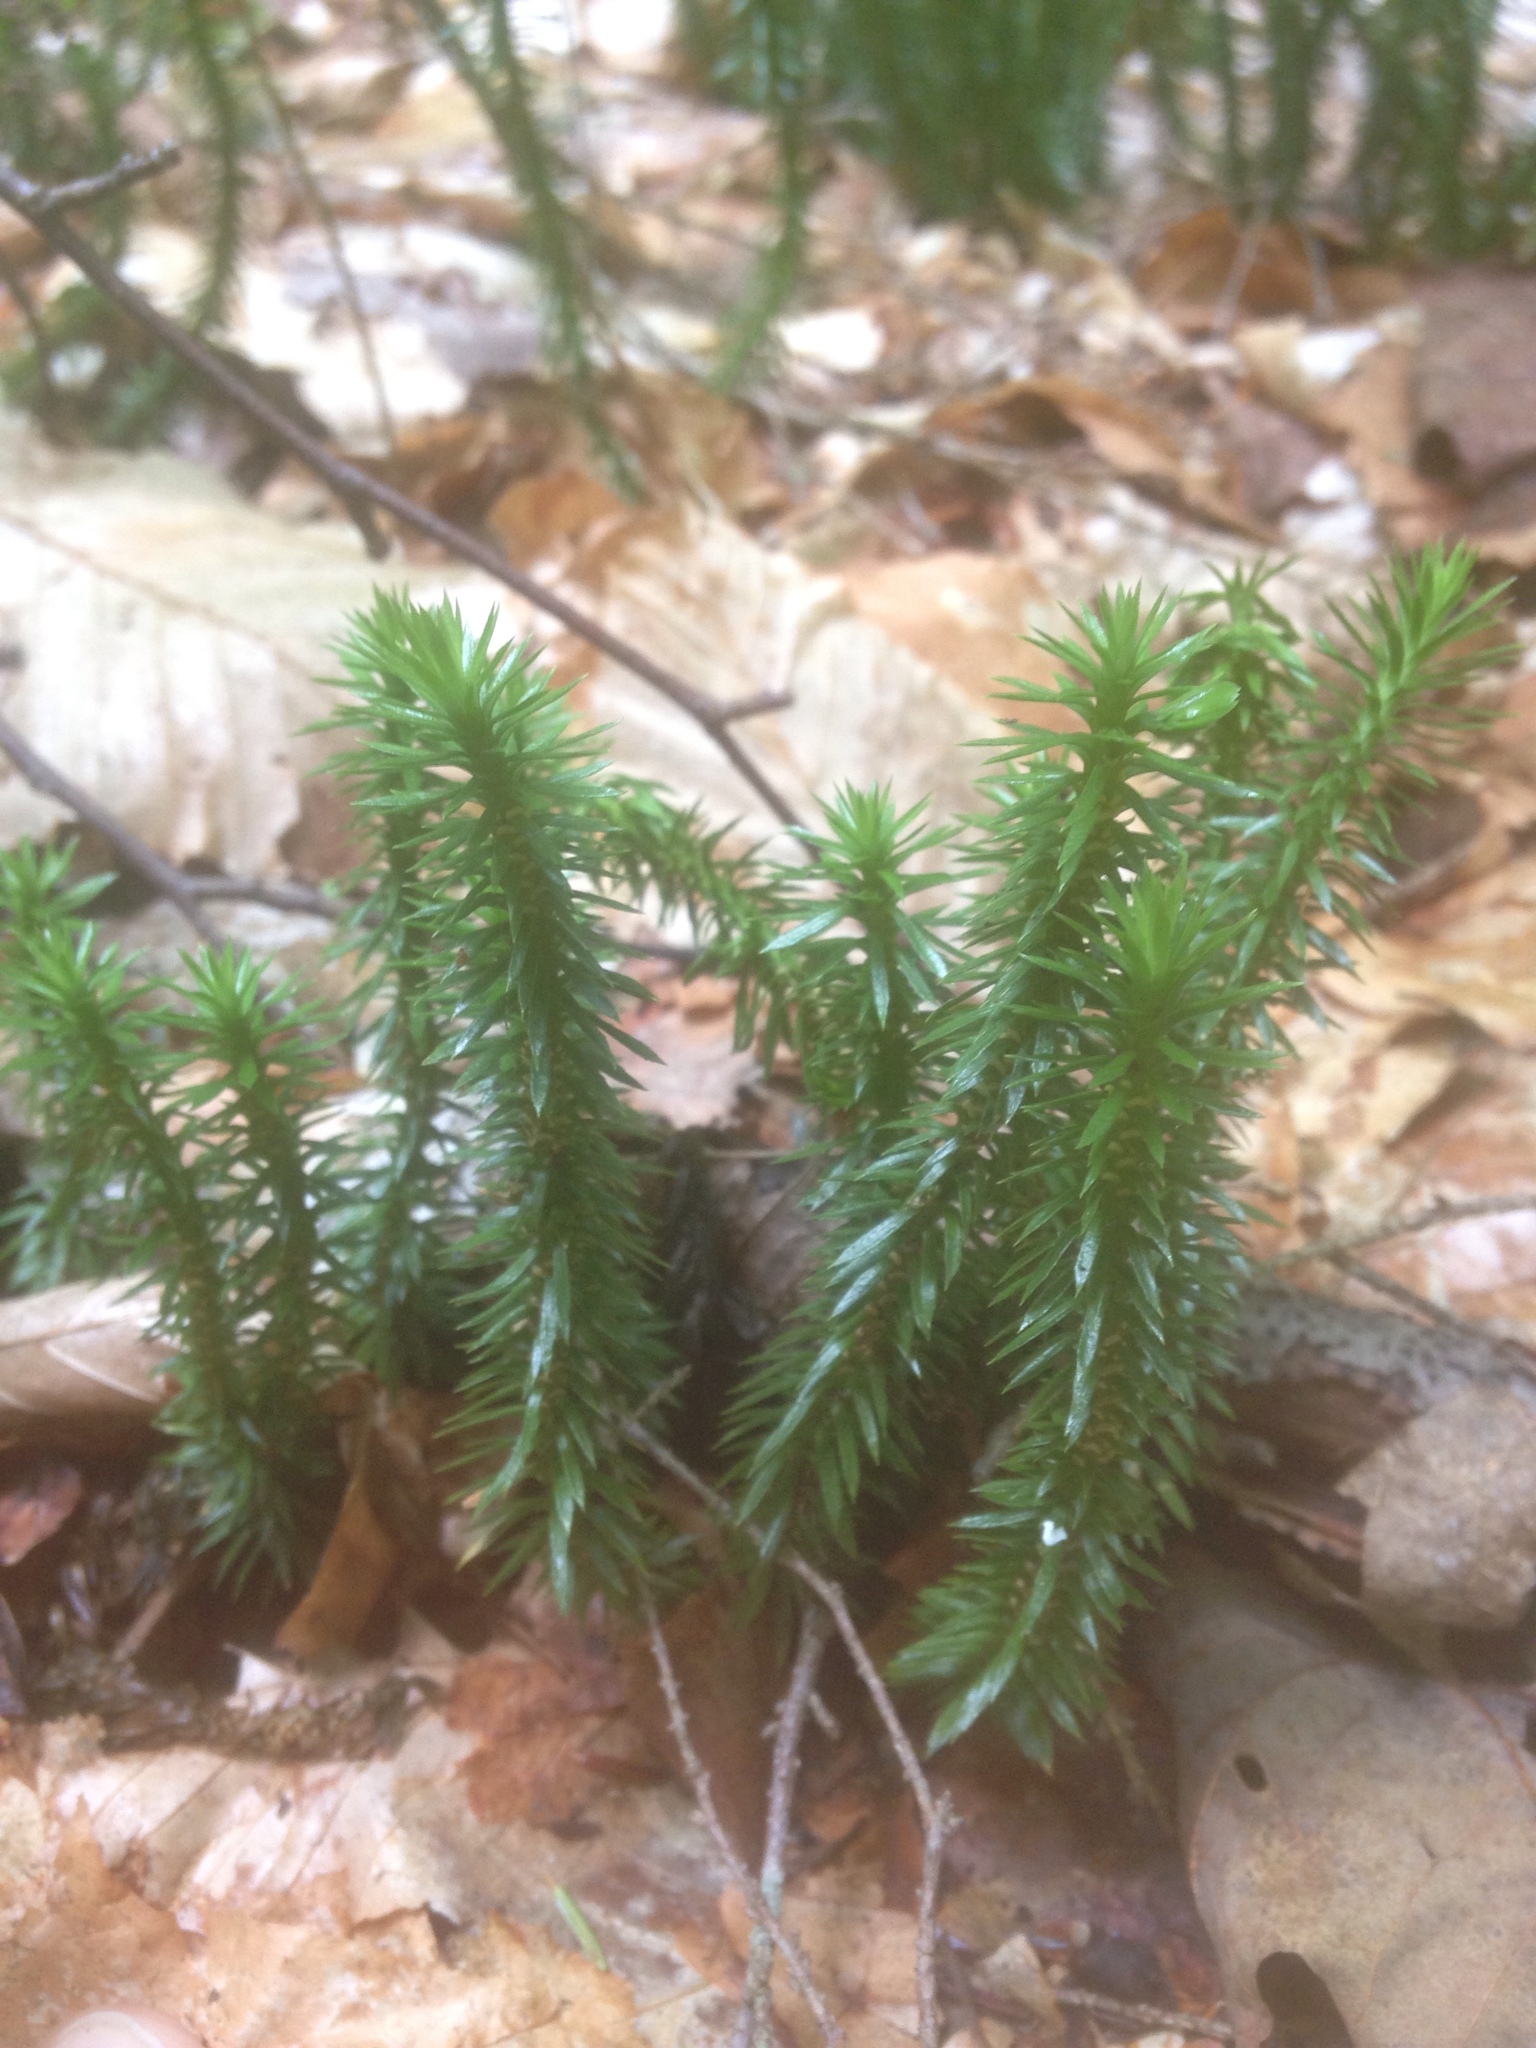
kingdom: Plantae
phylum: Tracheophyta
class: Lycopodiopsida
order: Lycopodiales
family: Lycopodiaceae
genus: Huperzia
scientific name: Huperzia lucidula
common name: Shining clubmoss
